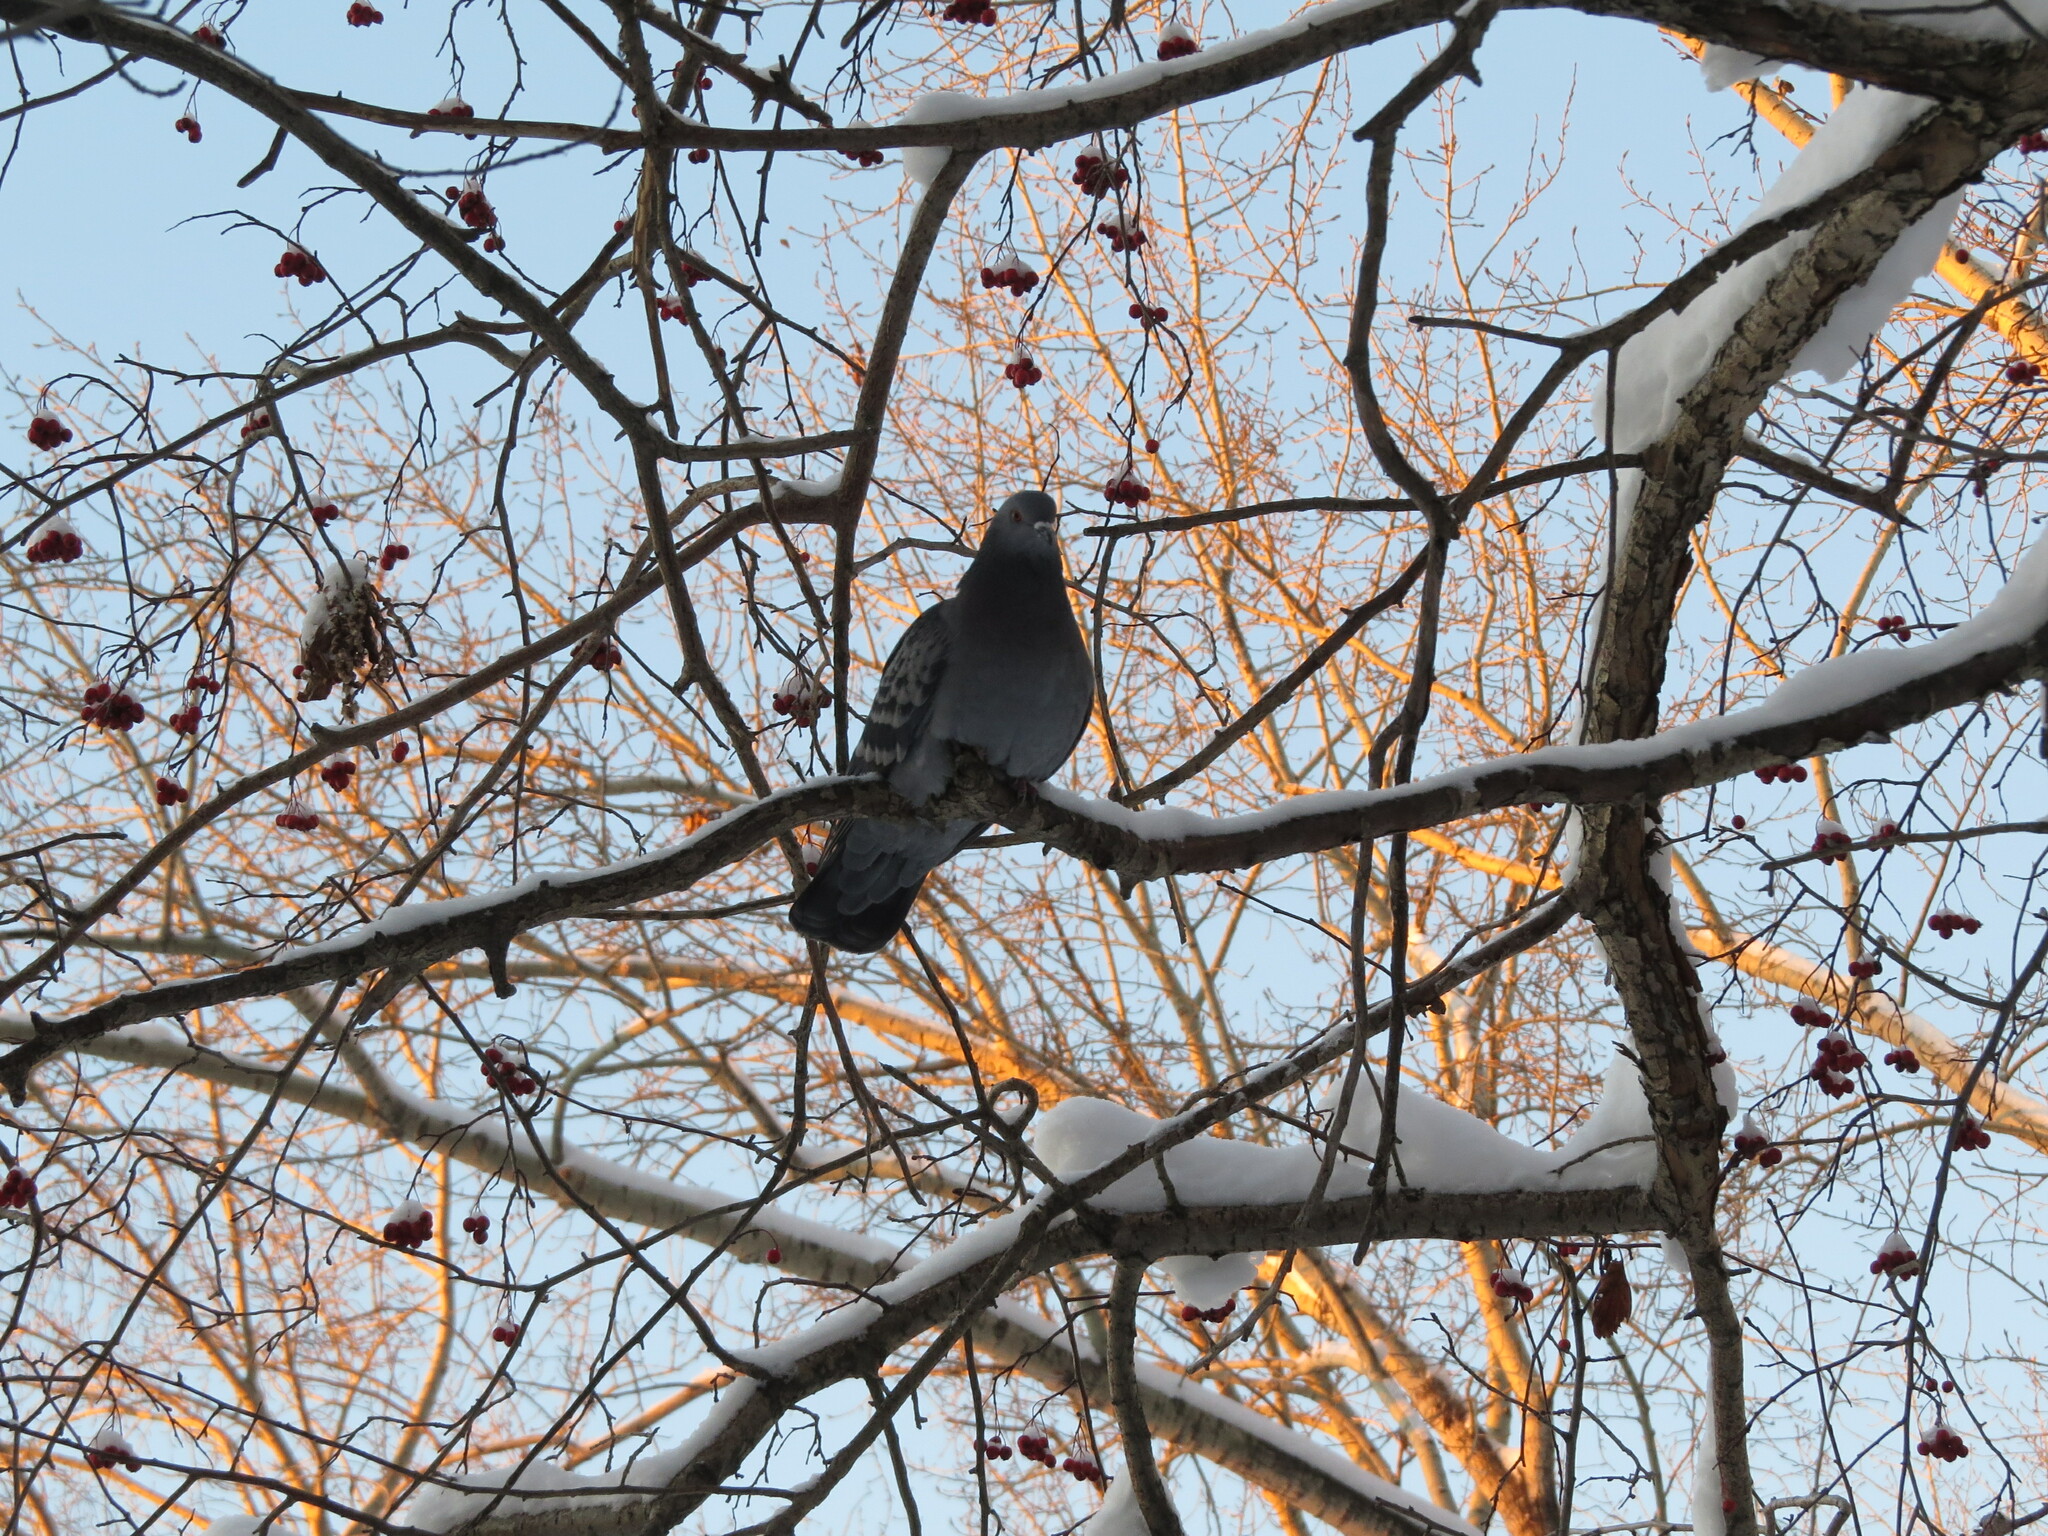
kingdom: Animalia
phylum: Chordata
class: Aves
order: Columbiformes
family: Columbidae
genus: Columba
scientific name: Columba livia
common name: Rock pigeon
